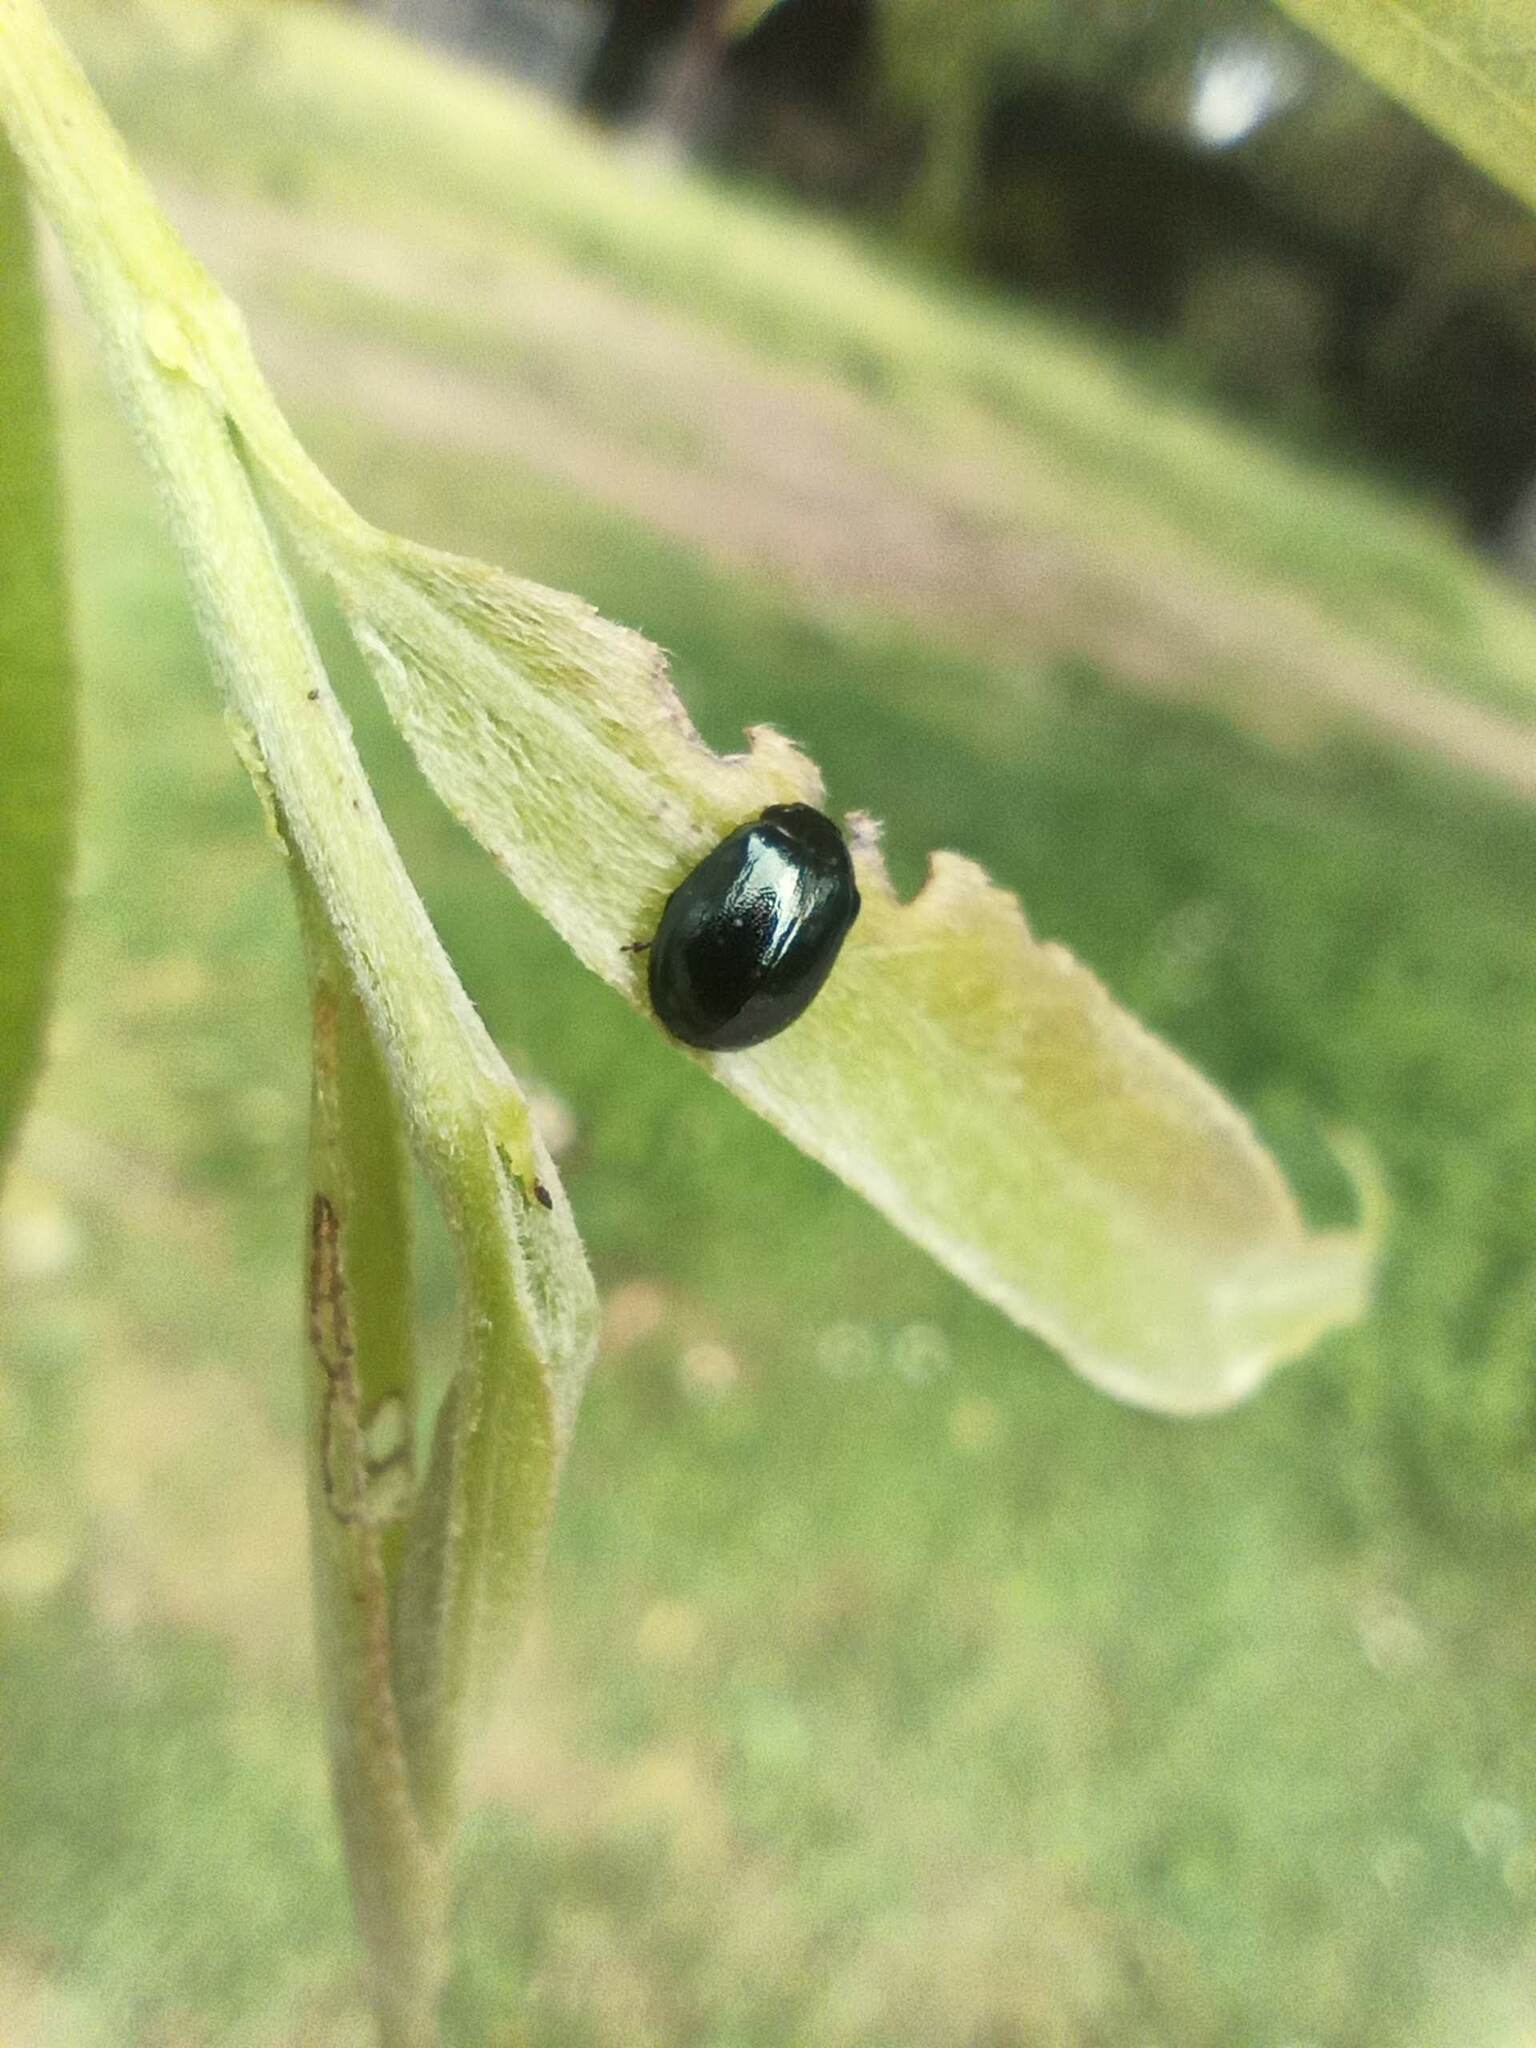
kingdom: Animalia
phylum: Arthropoda
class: Insecta
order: Coleoptera
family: Chrysomelidae
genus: Plagiodera
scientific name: Plagiodera versicolora
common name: Imported willow leaf beetle
